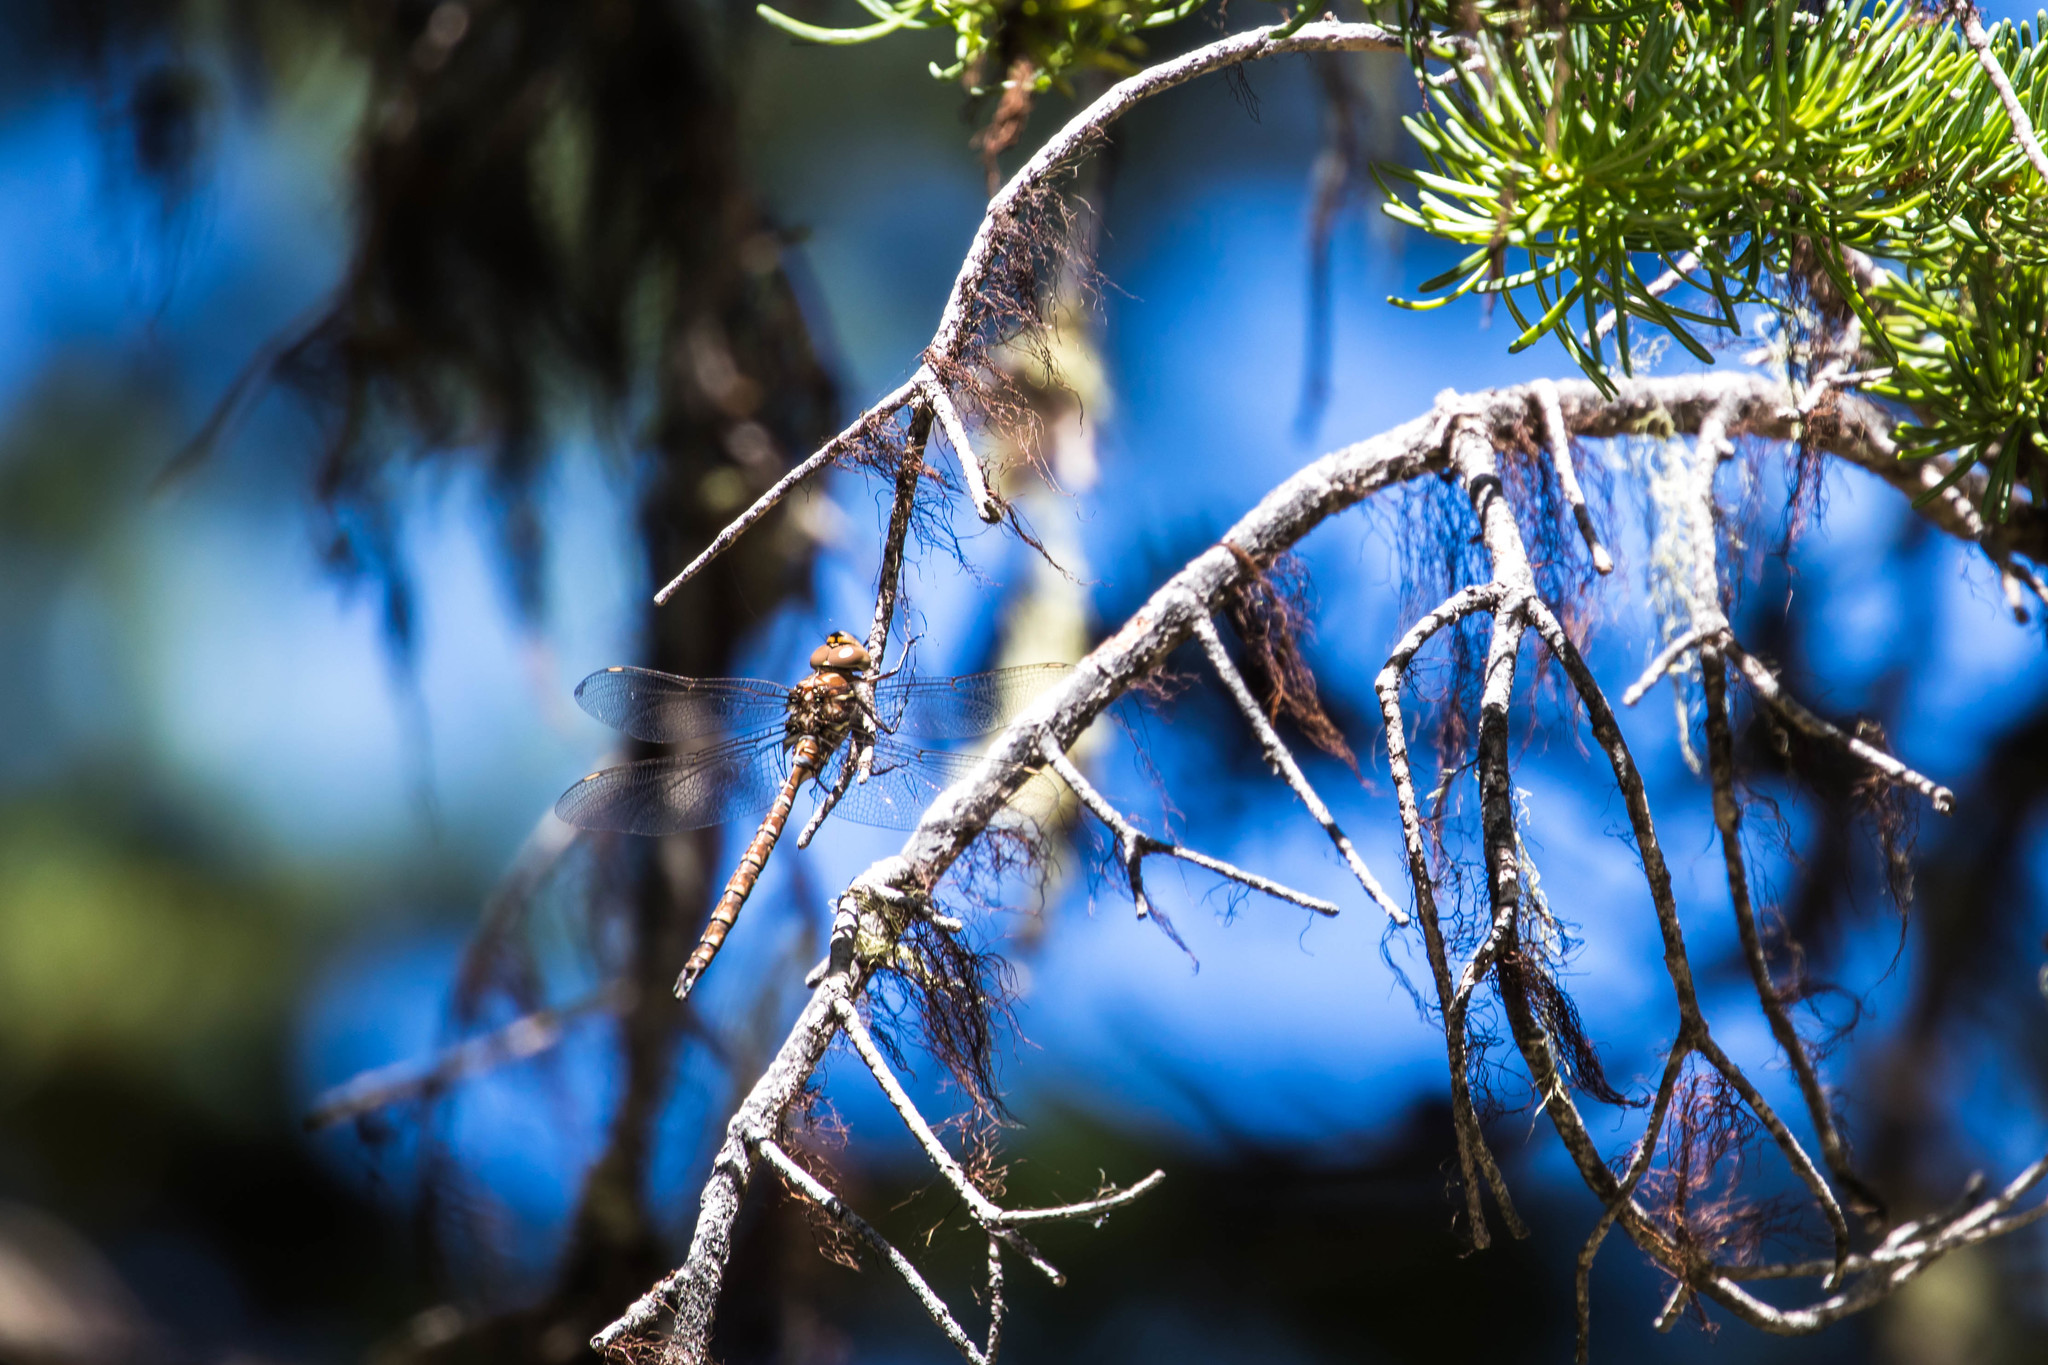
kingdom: Animalia
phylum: Arthropoda
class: Insecta
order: Odonata
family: Aeshnidae
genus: Aeshna
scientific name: Aeshna umbrosa
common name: Shadow darner
